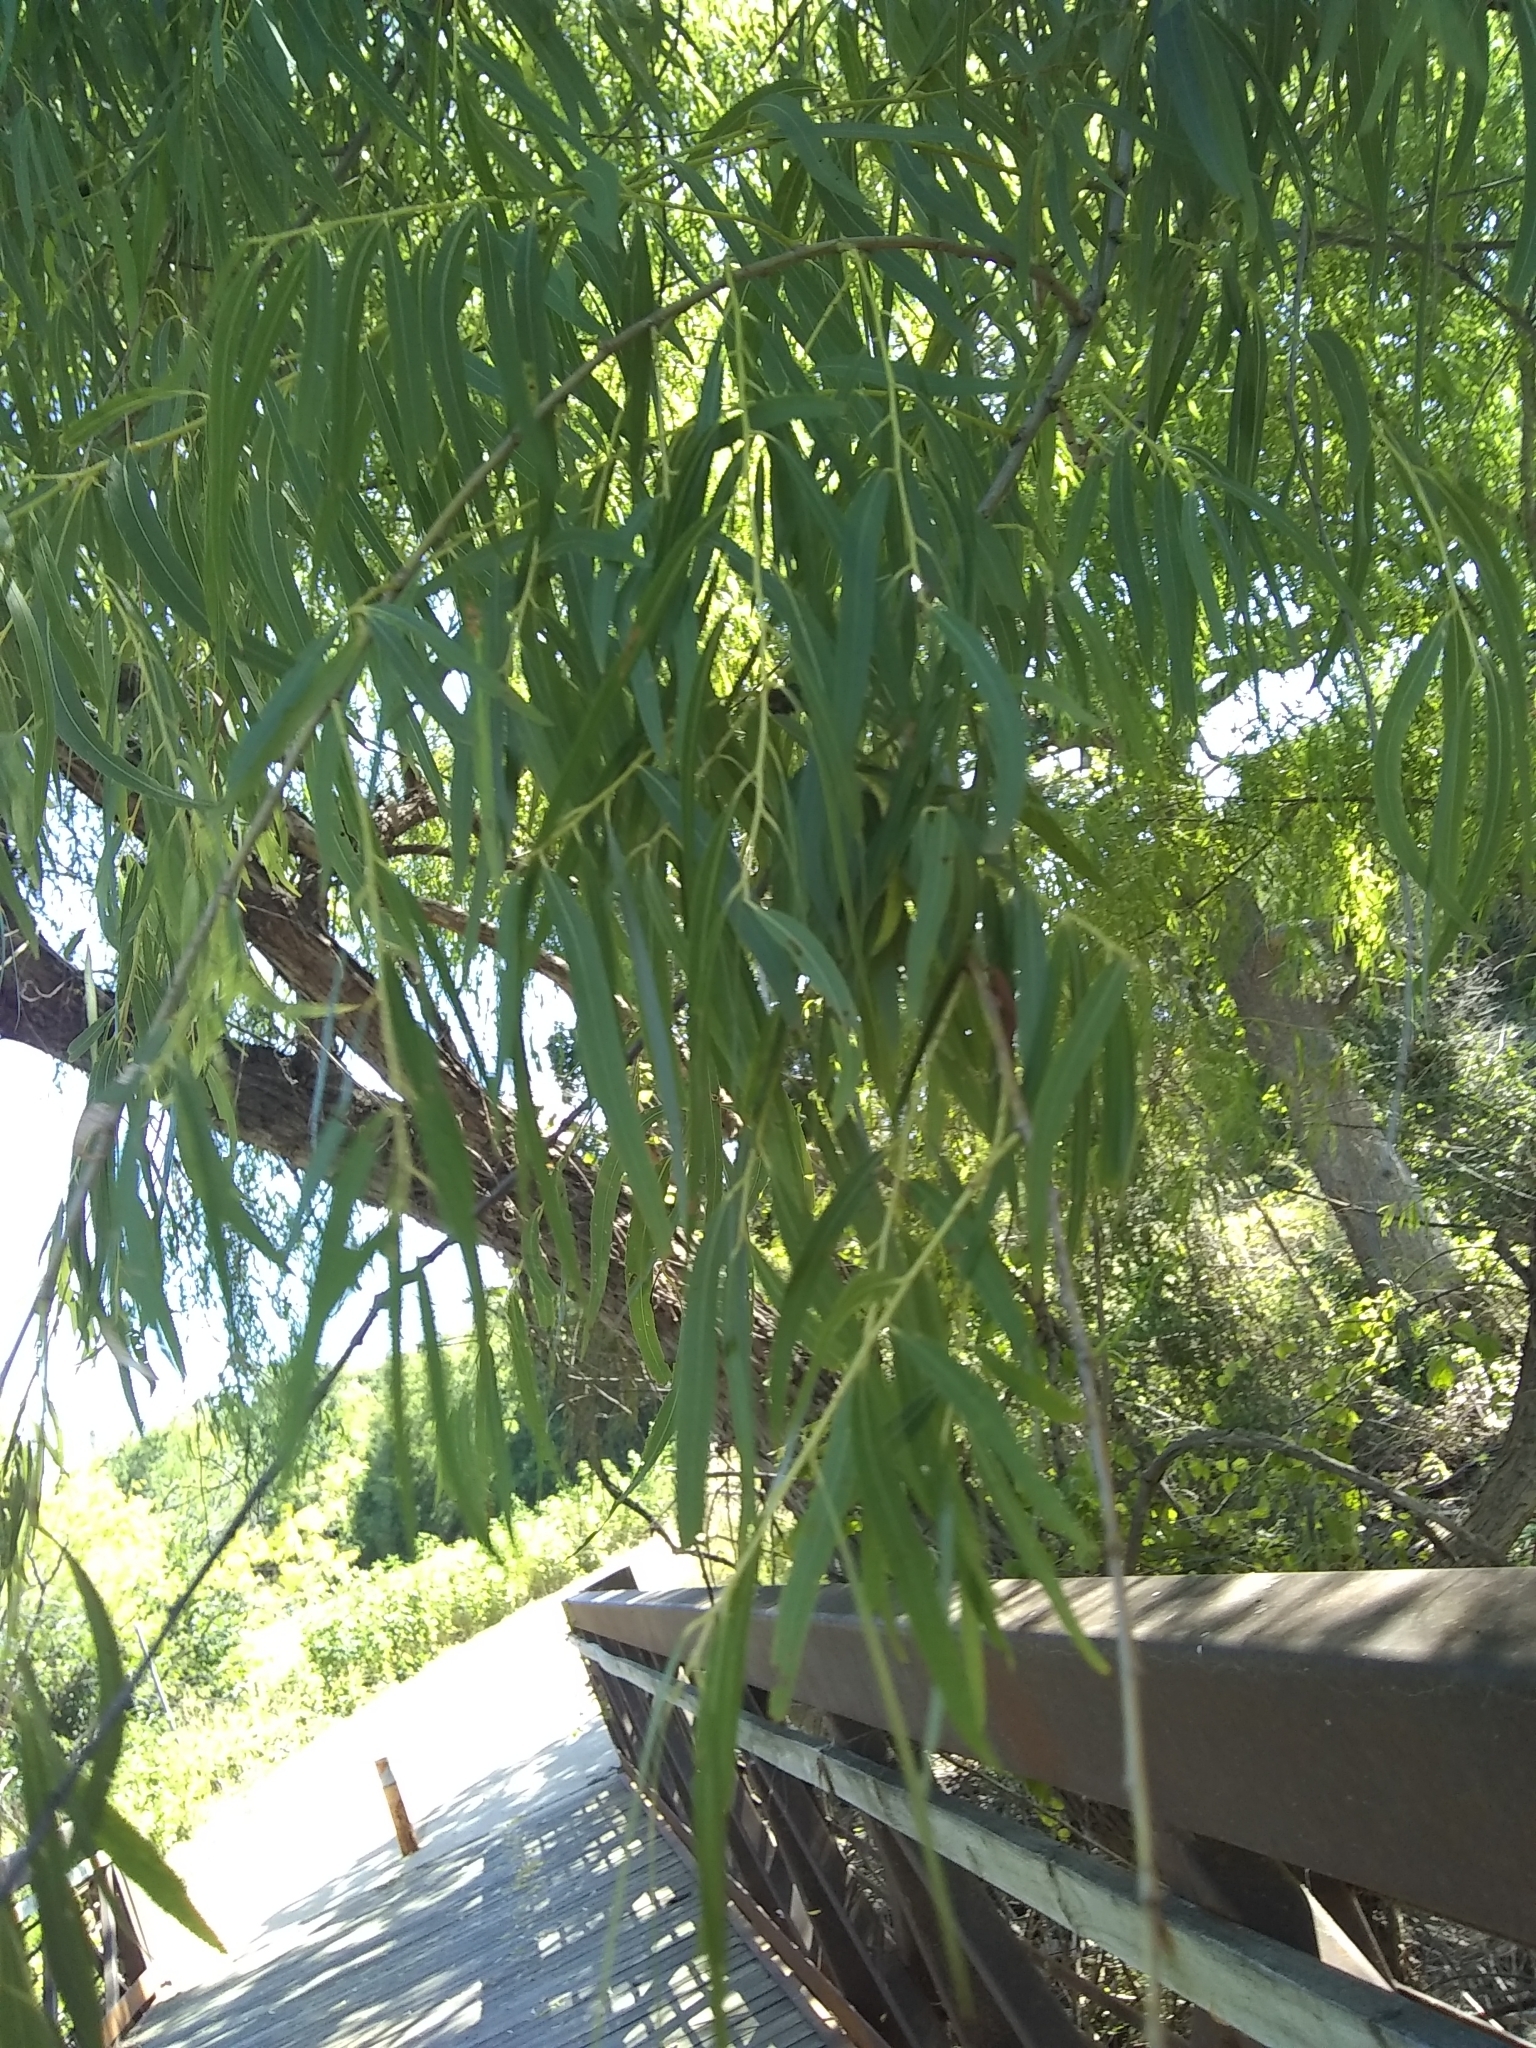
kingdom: Plantae
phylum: Tracheophyta
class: Magnoliopsida
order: Malpighiales
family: Salicaceae
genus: Salix
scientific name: Salix nigra
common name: Black willow
